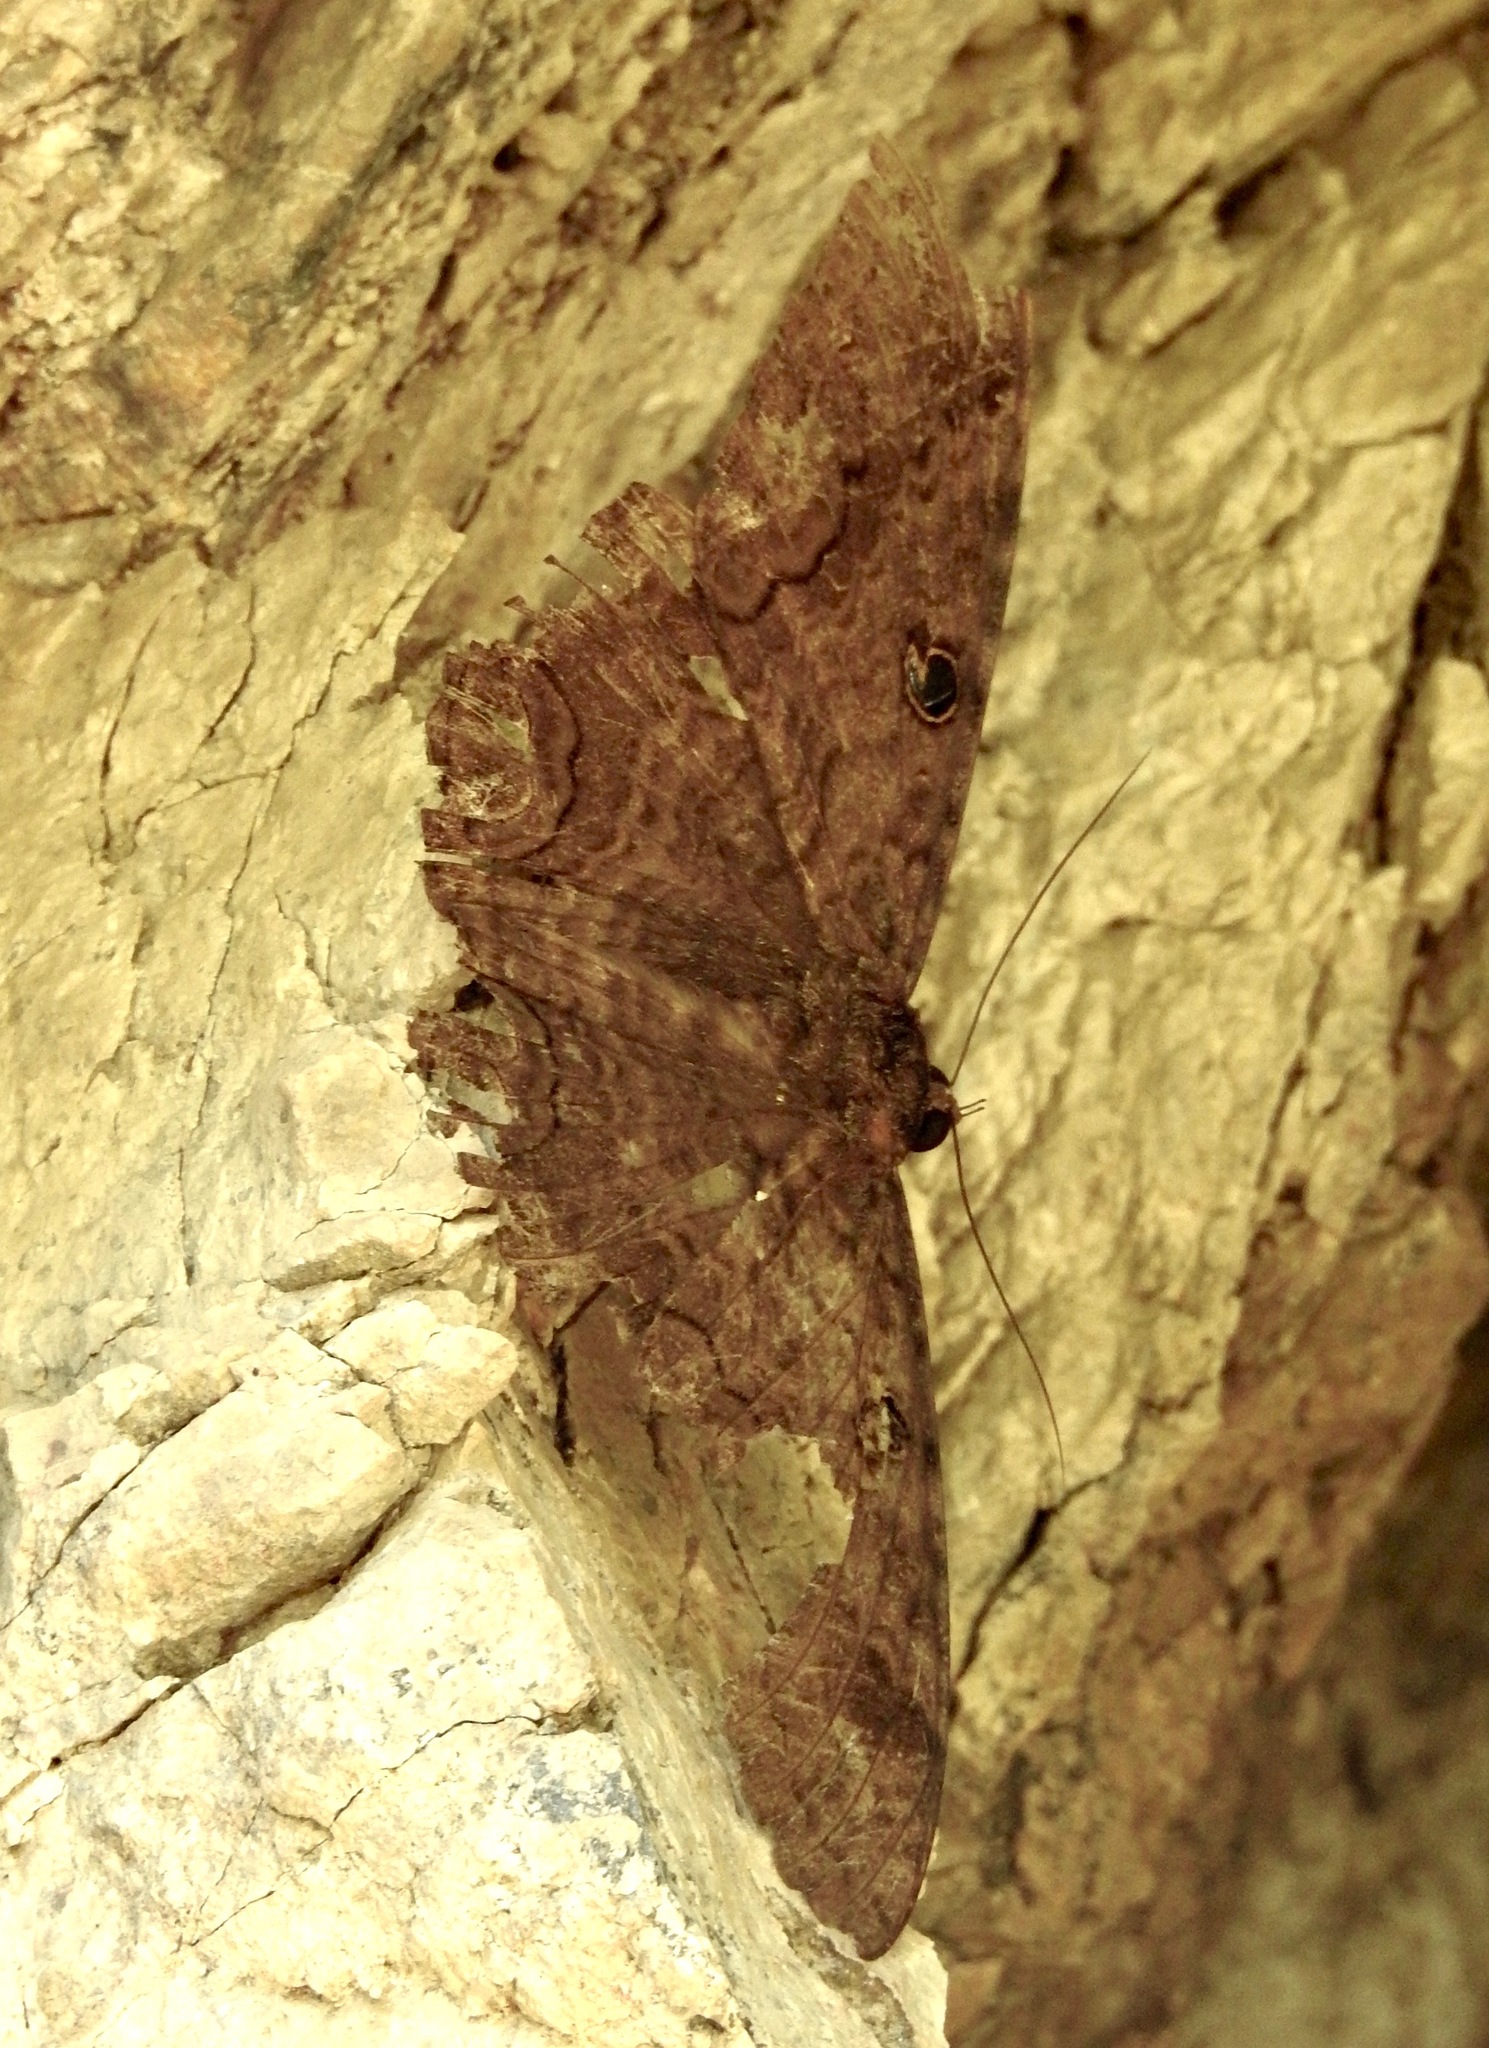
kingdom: Animalia
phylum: Arthropoda
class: Insecta
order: Lepidoptera
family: Erebidae
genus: Ascalapha
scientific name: Ascalapha odorata
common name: Black witch
